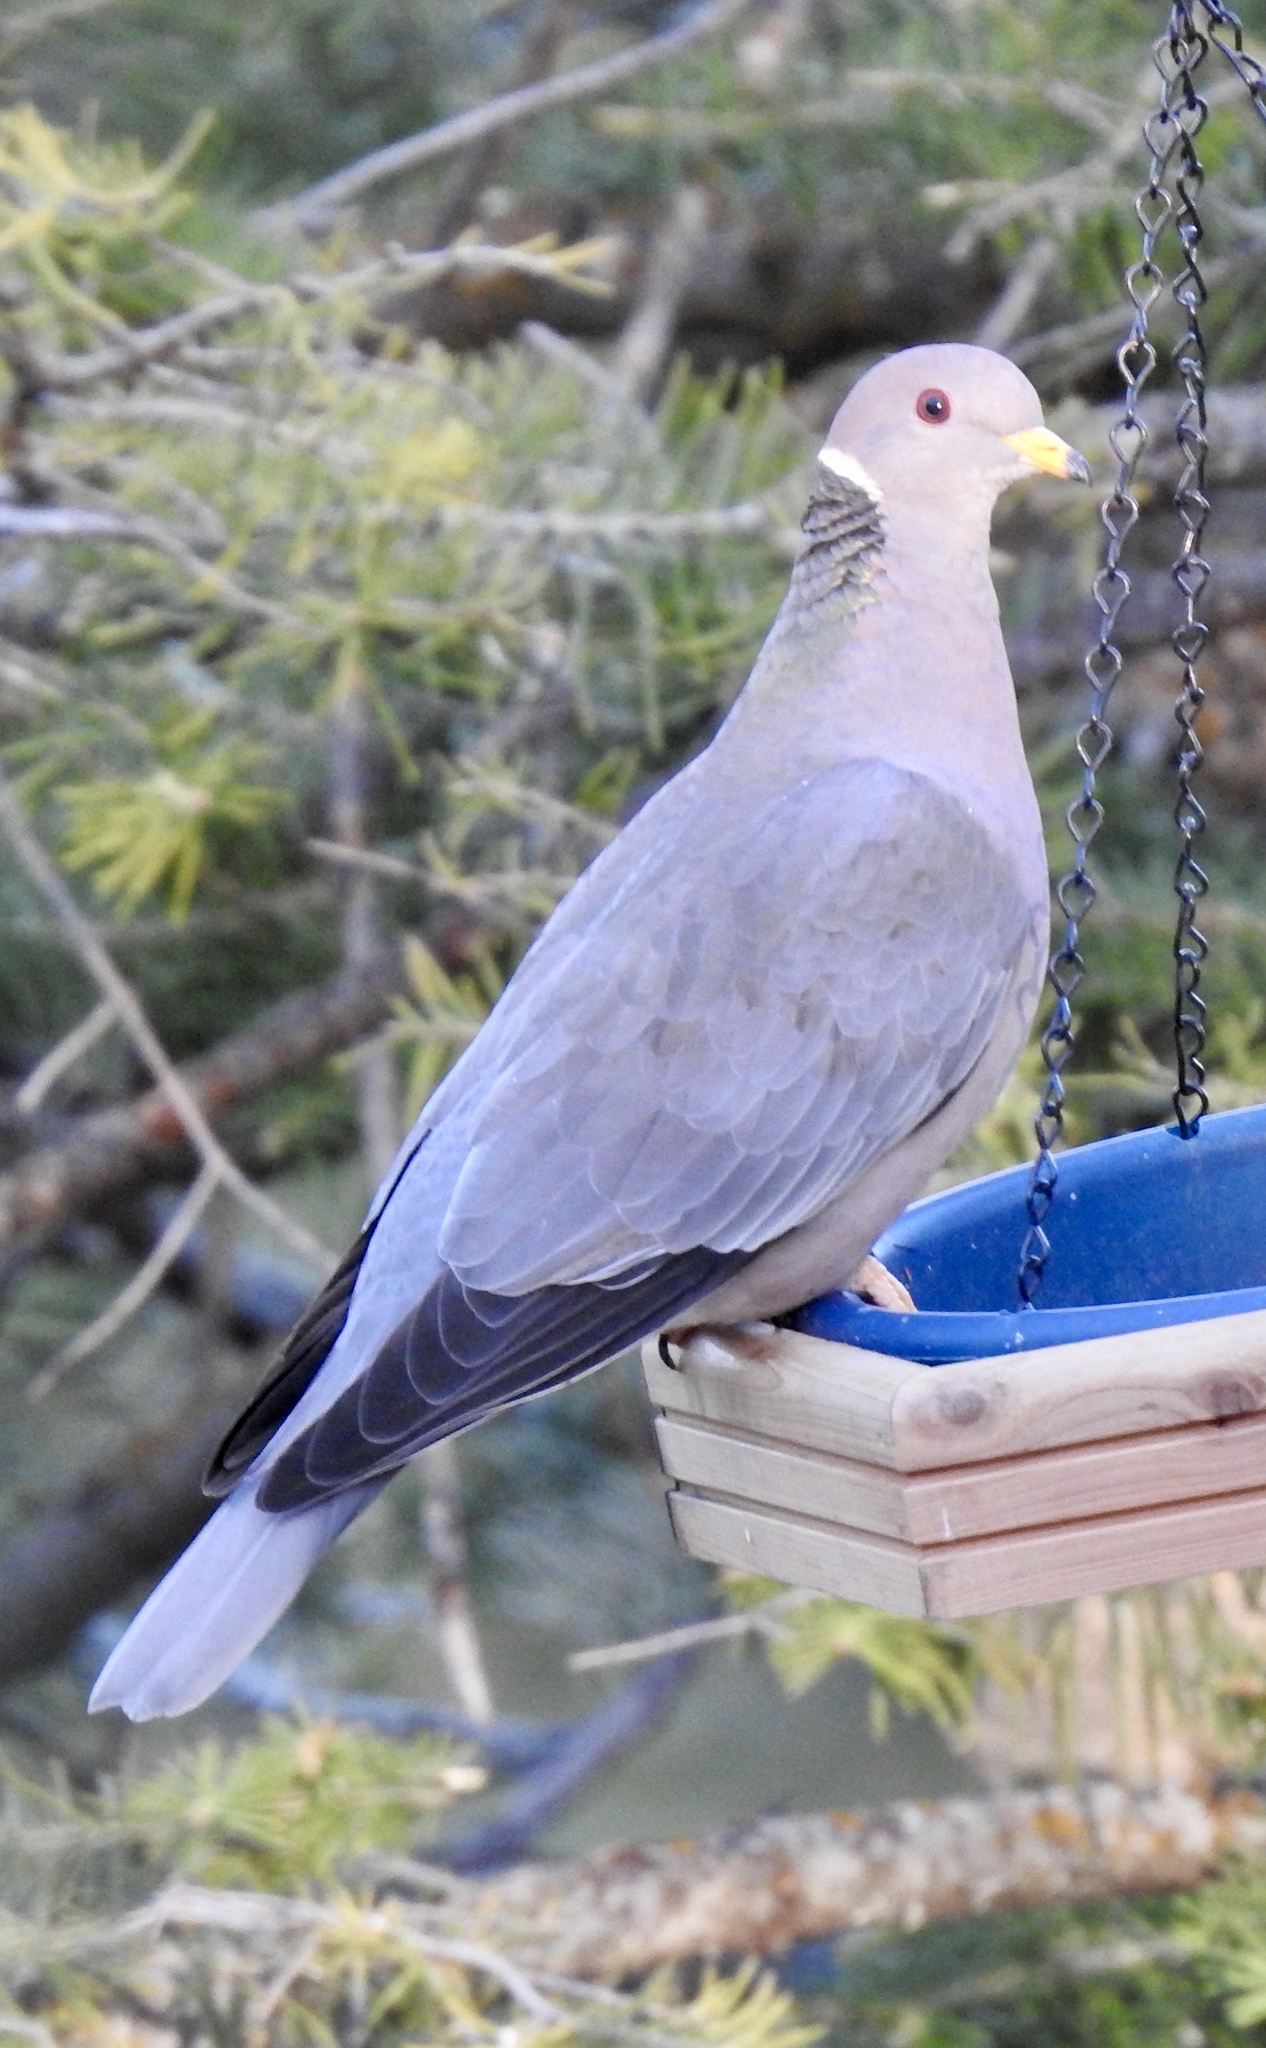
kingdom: Animalia
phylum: Chordata
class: Aves
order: Columbiformes
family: Columbidae
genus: Patagioenas
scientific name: Patagioenas fasciata
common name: Band-tailed pigeon
